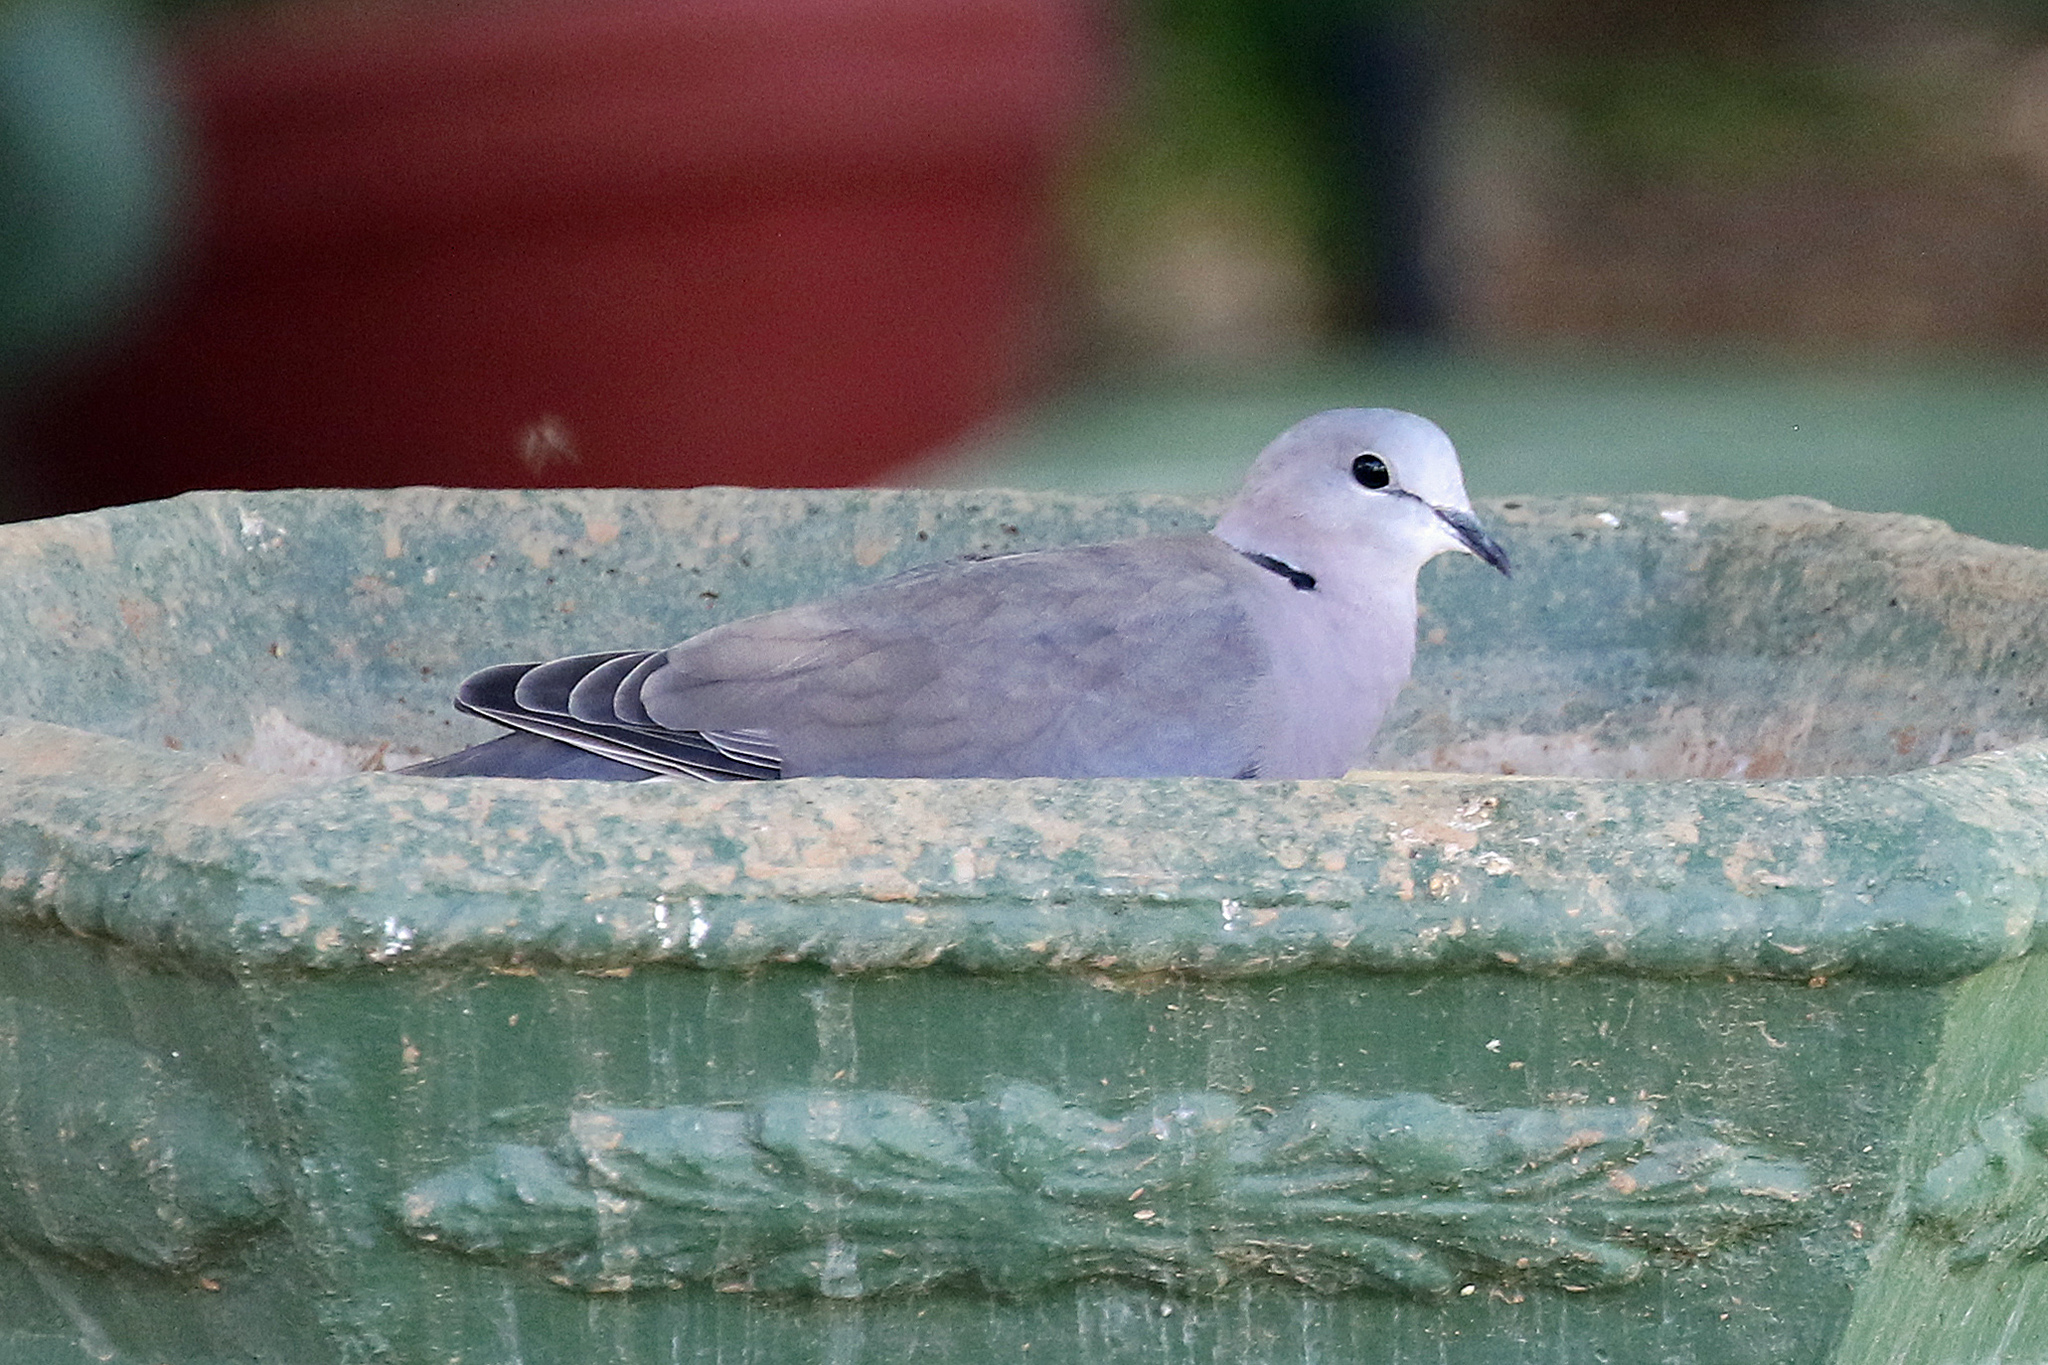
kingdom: Animalia
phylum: Chordata
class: Aves
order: Columbiformes
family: Columbidae
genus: Streptopelia
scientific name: Streptopelia capicola
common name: Ring-necked dove
